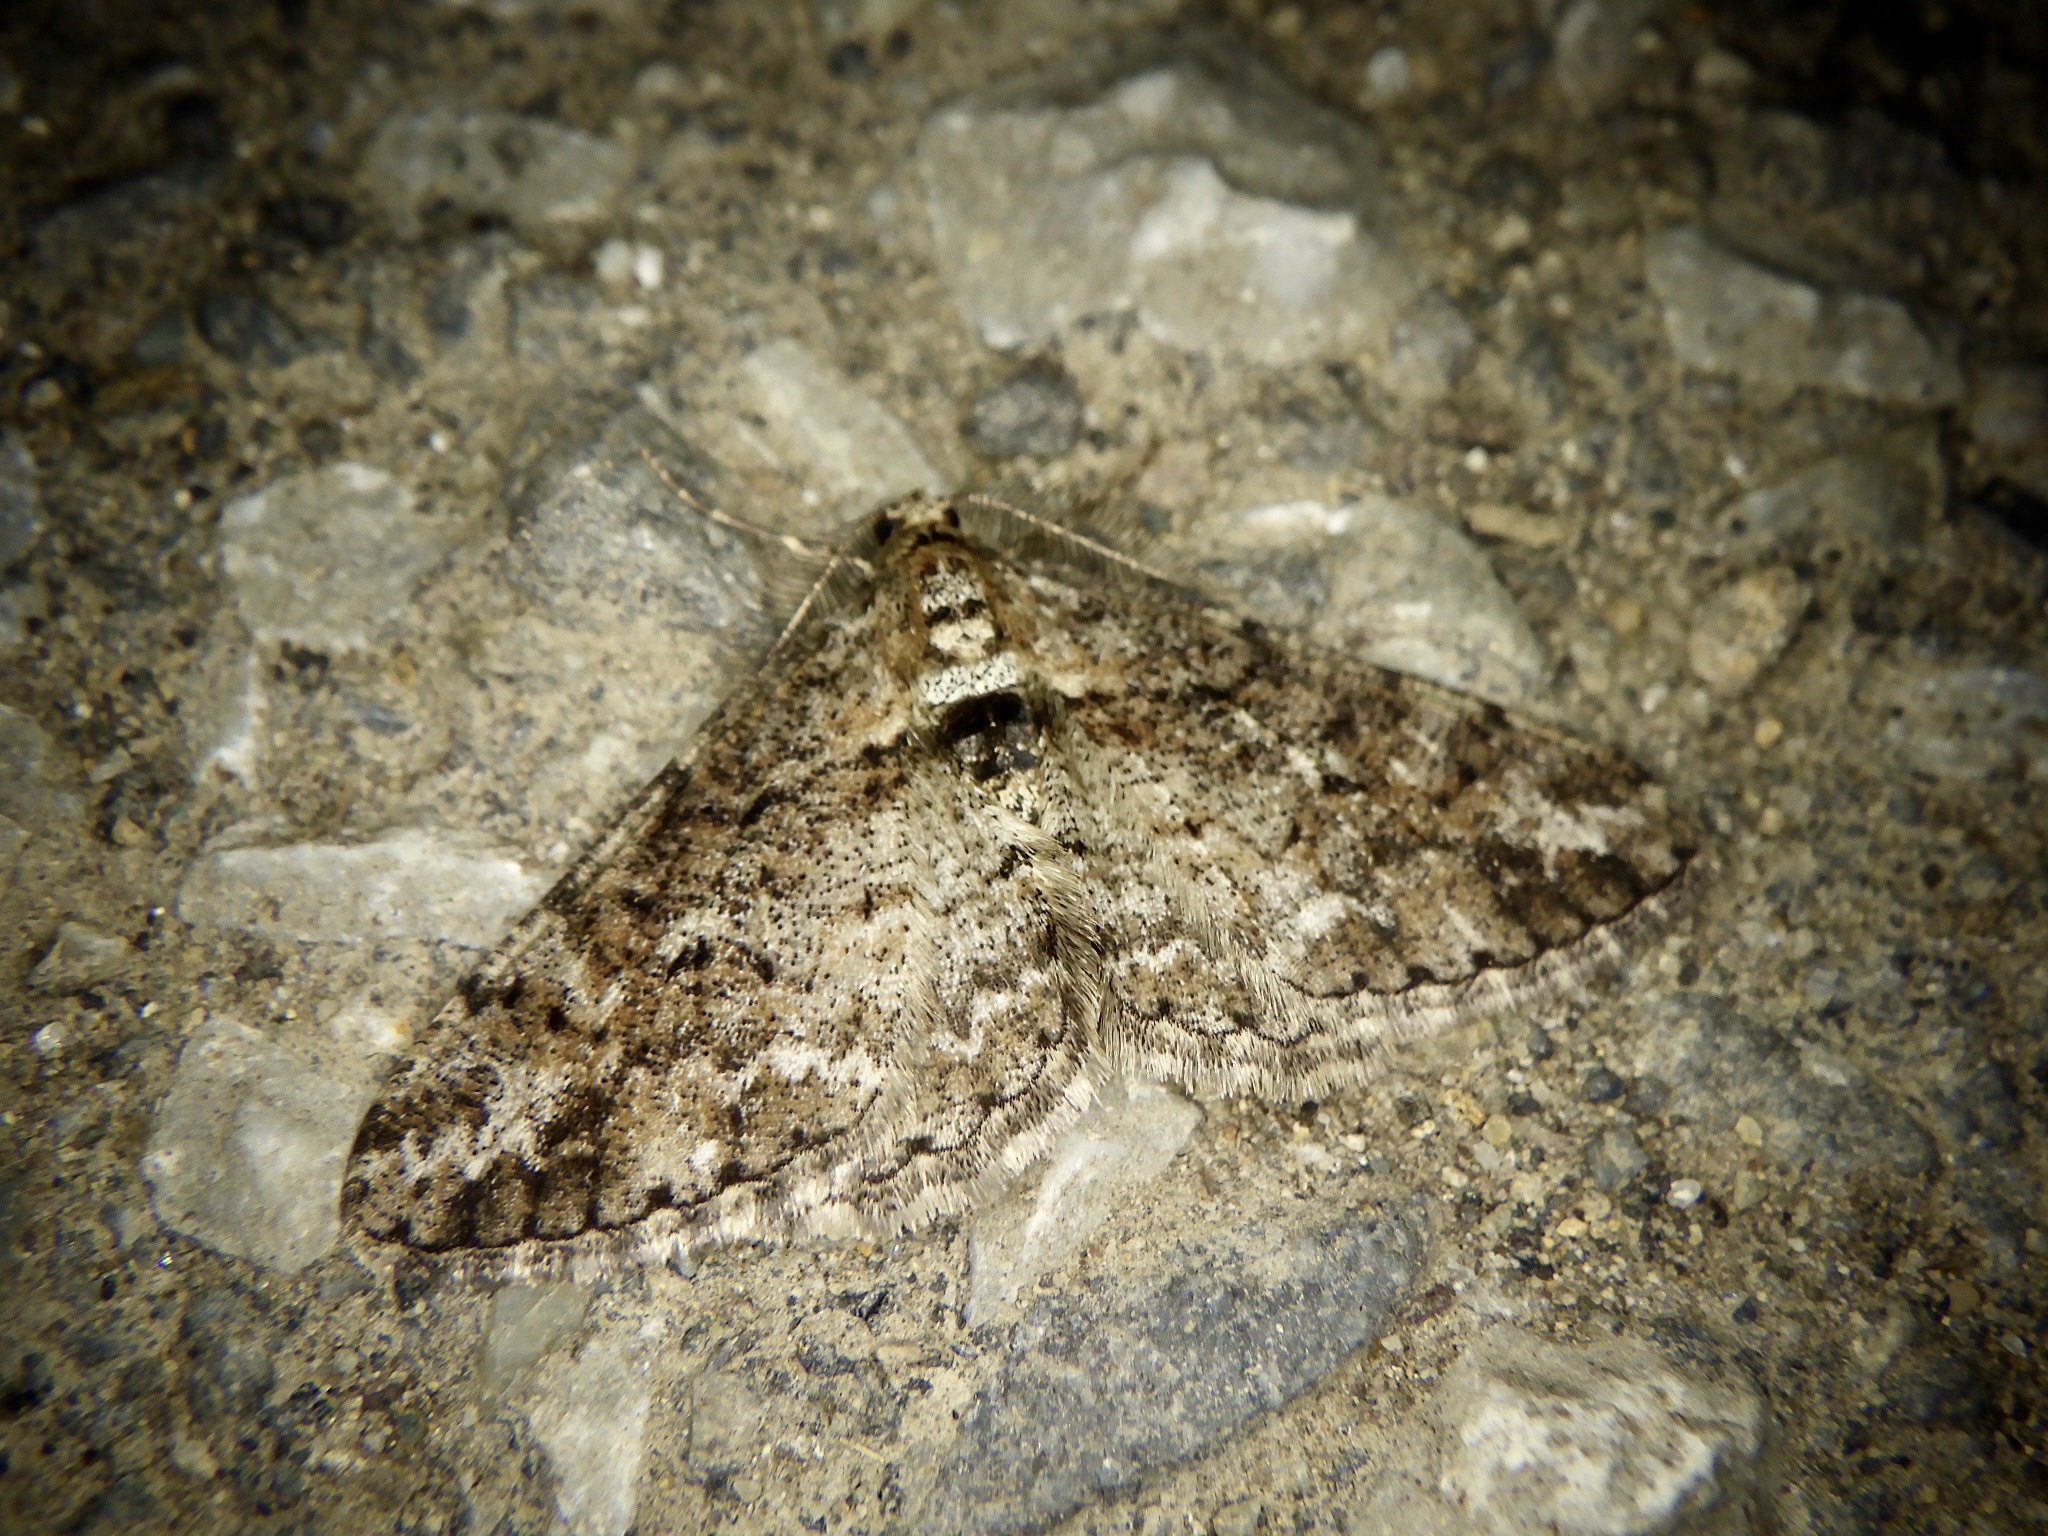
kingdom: Animalia
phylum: Arthropoda
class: Insecta
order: Lepidoptera
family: Geometridae
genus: Pseuderannis
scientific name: Pseuderannis lomozemia
